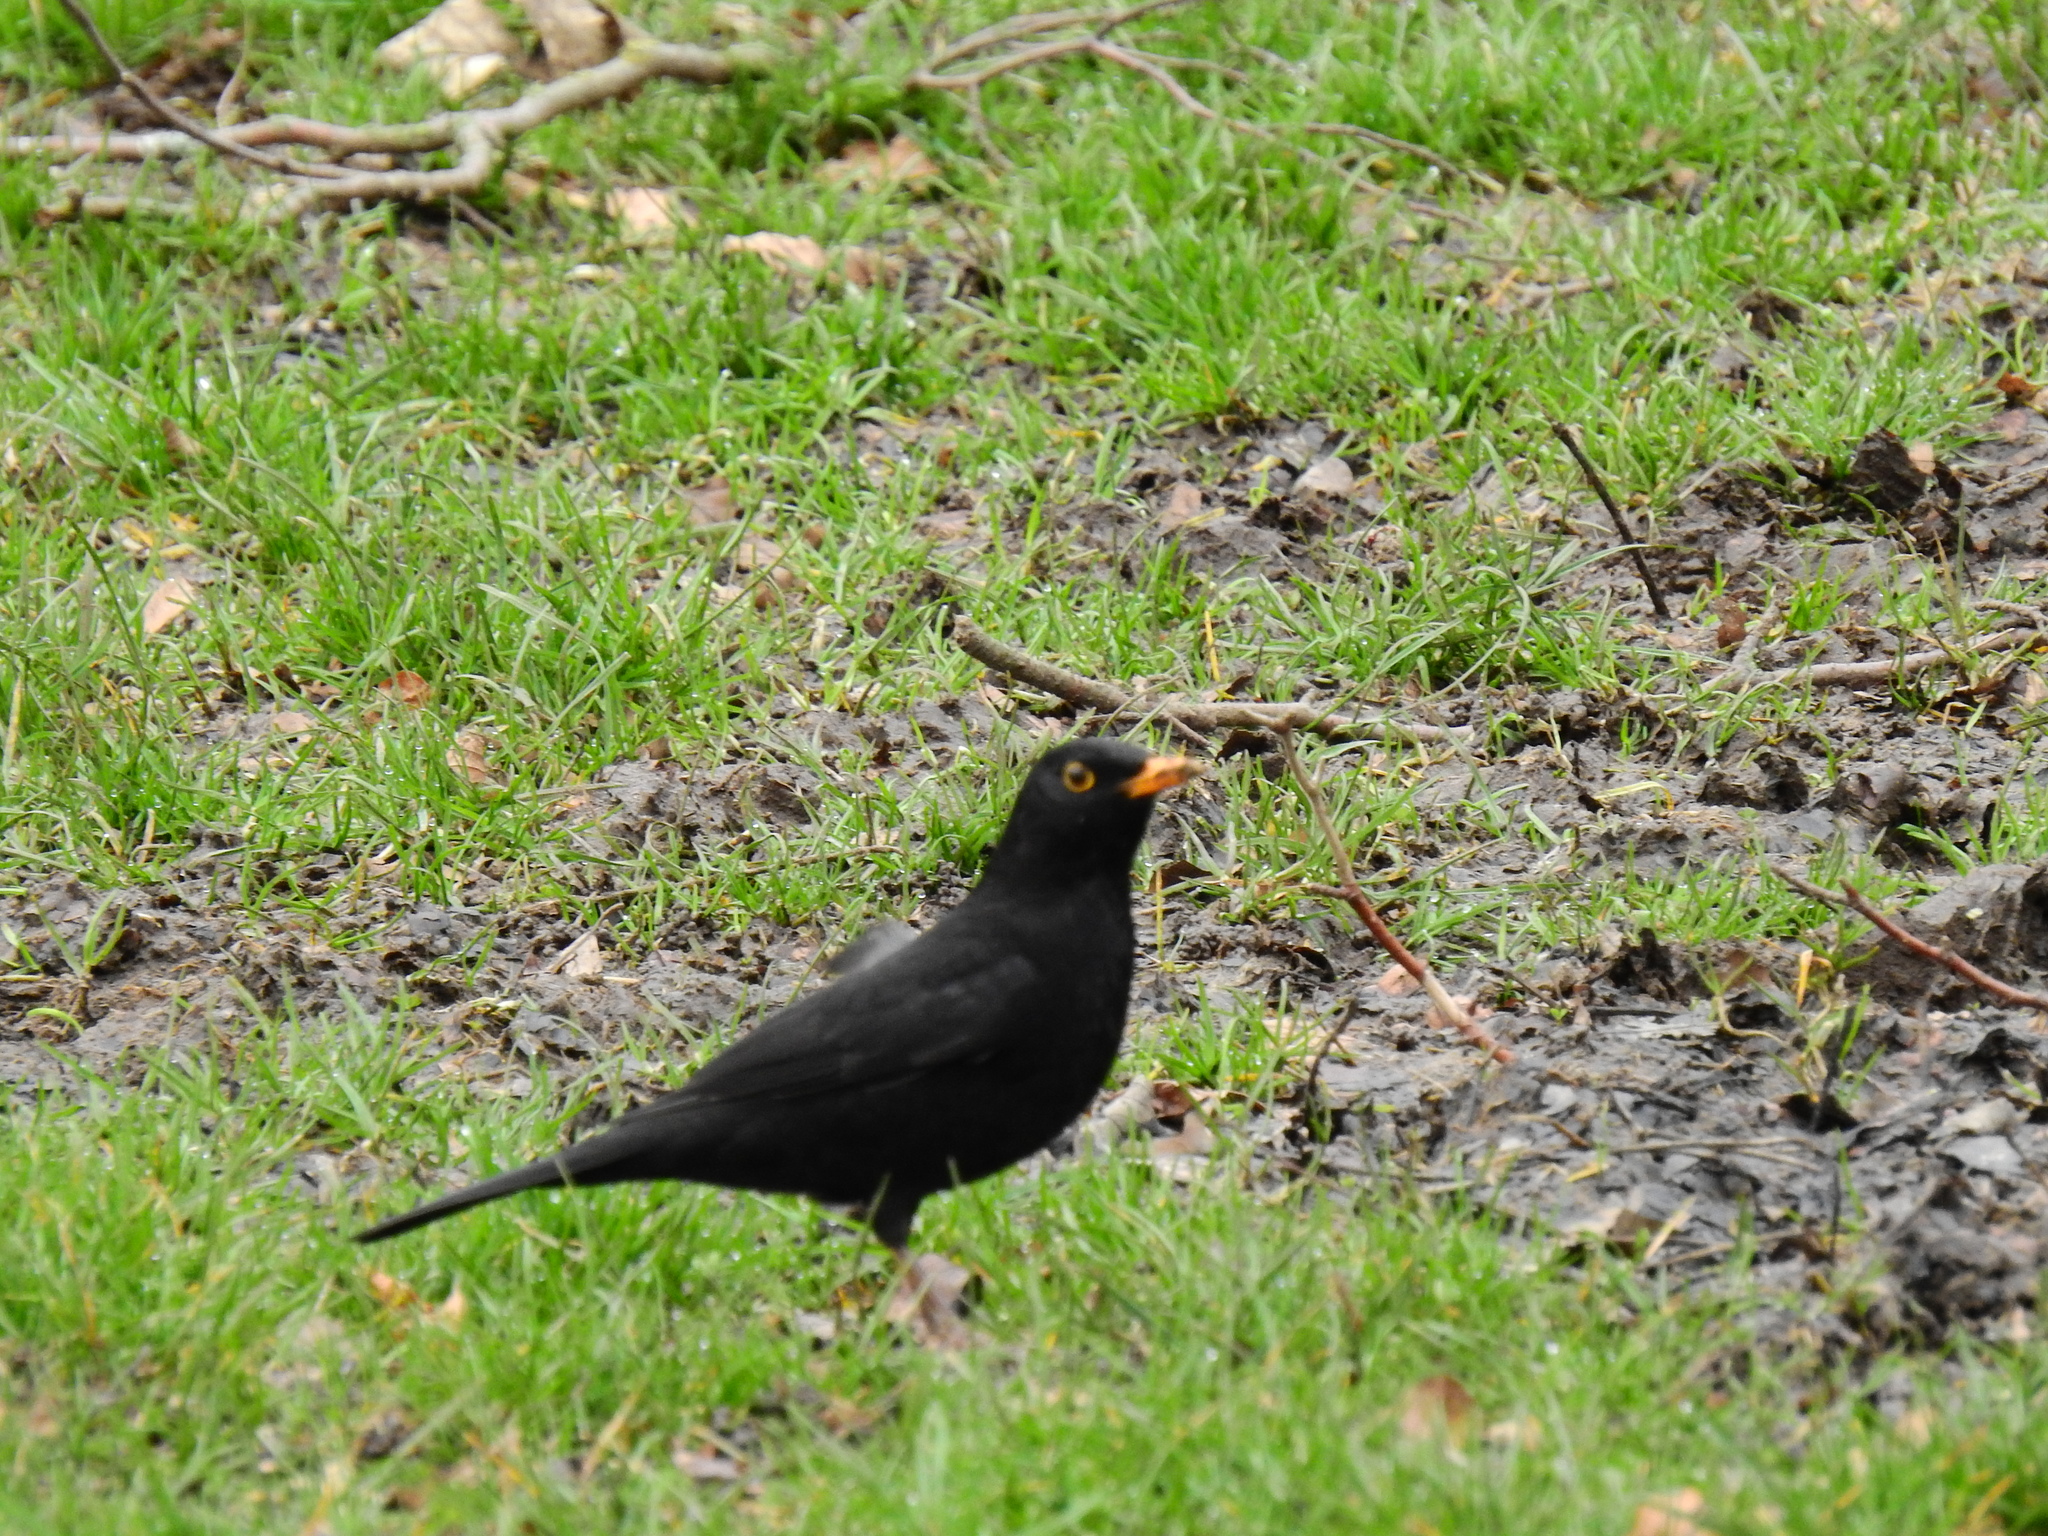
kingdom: Animalia
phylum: Chordata
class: Aves
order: Passeriformes
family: Turdidae
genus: Turdus
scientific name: Turdus merula
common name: Common blackbird
